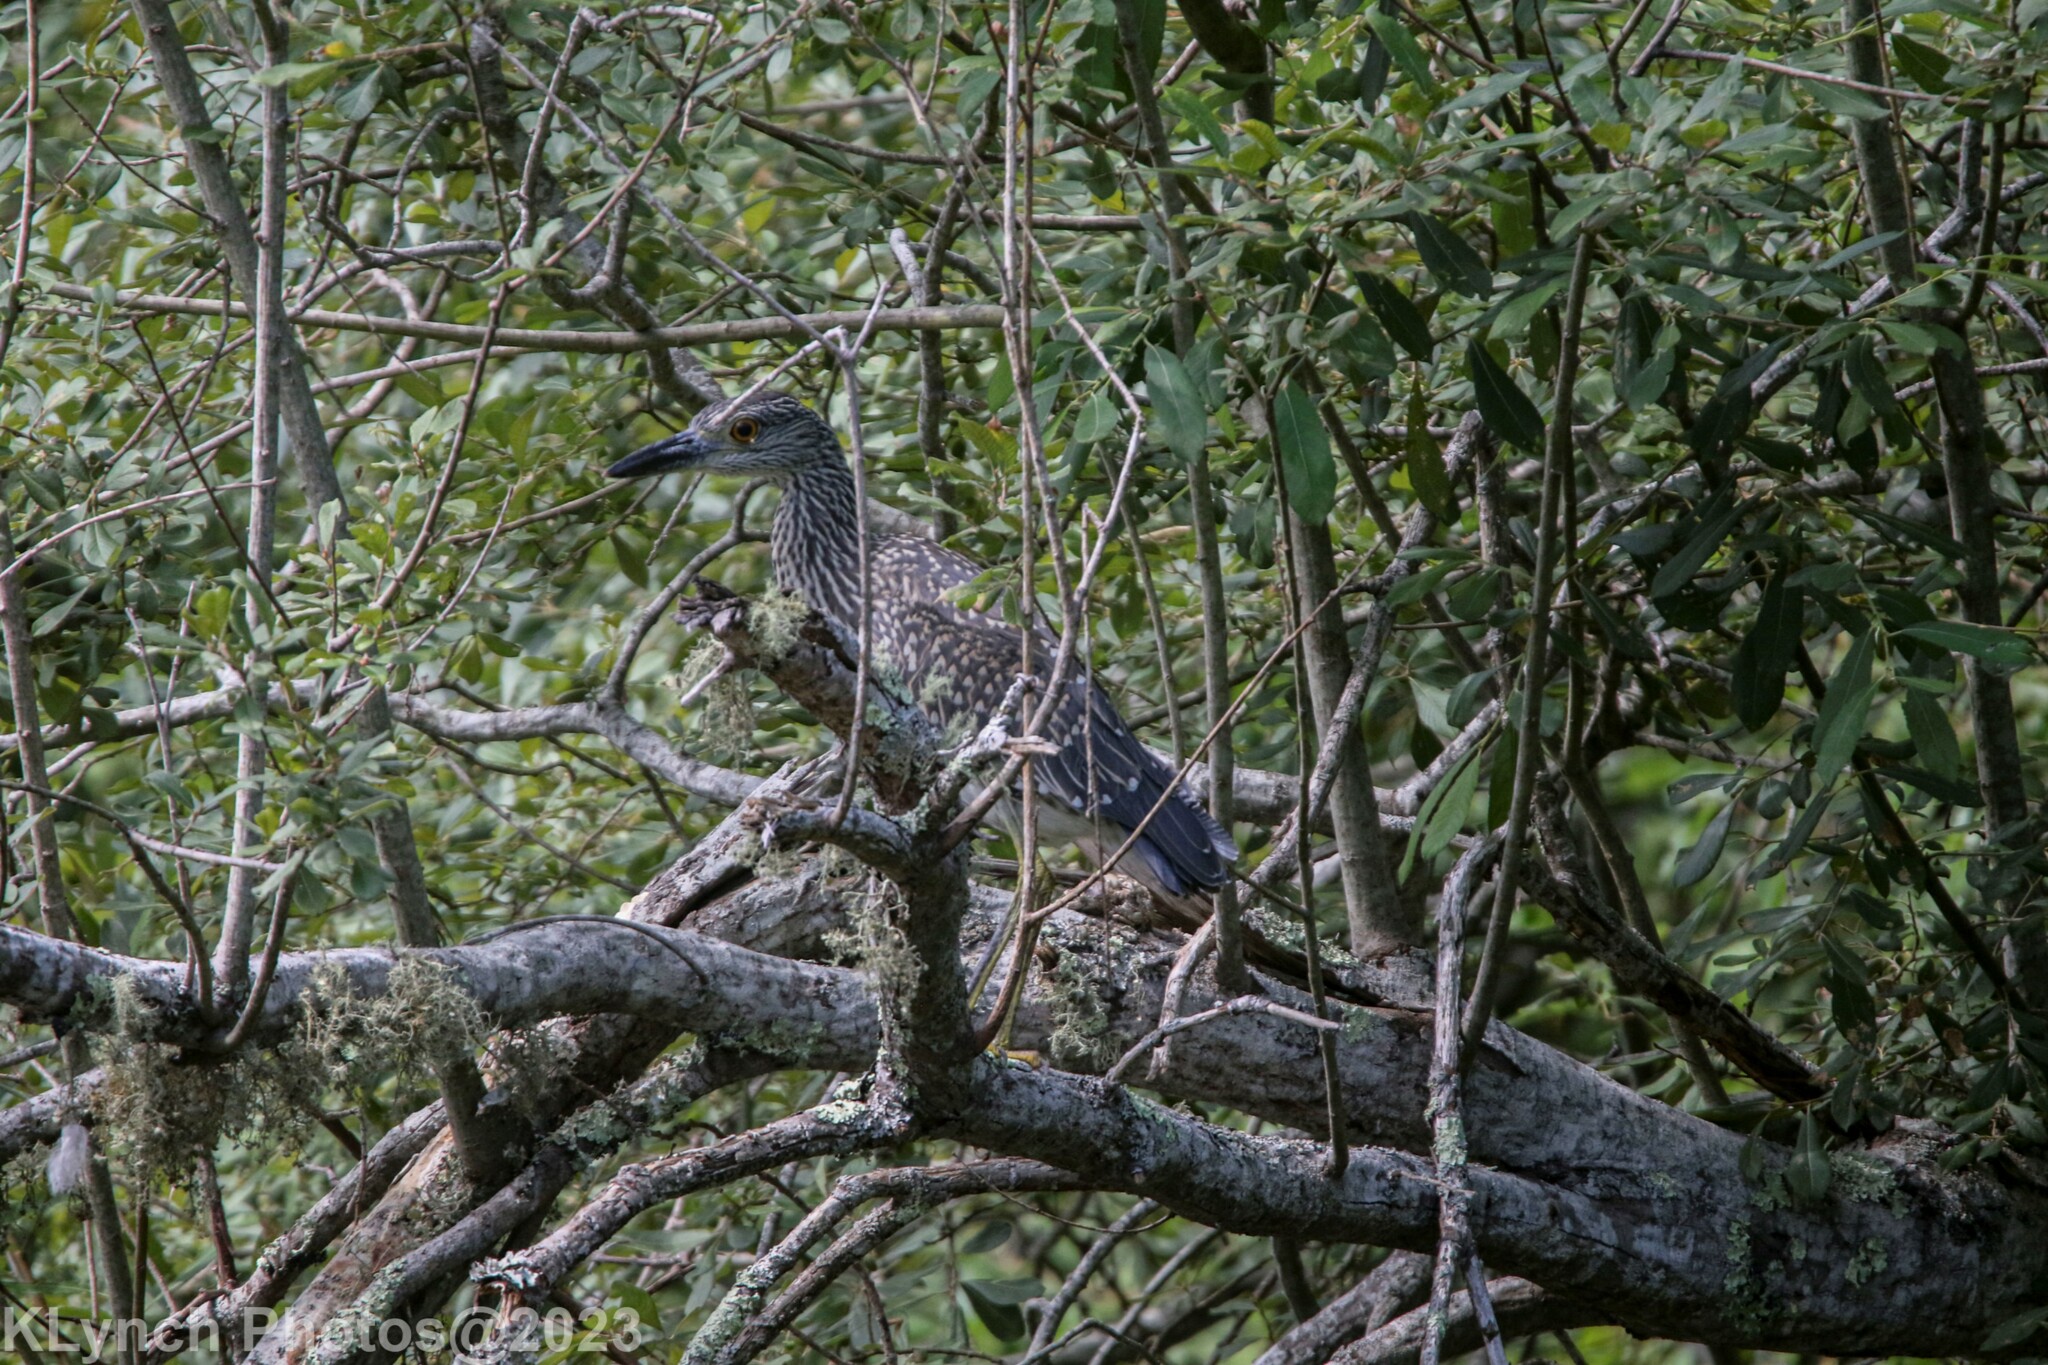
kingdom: Animalia
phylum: Chordata
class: Aves
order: Pelecaniformes
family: Ardeidae
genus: Nyctanassa
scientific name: Nyctanassa violacea
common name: Yellow-crowned night heron
